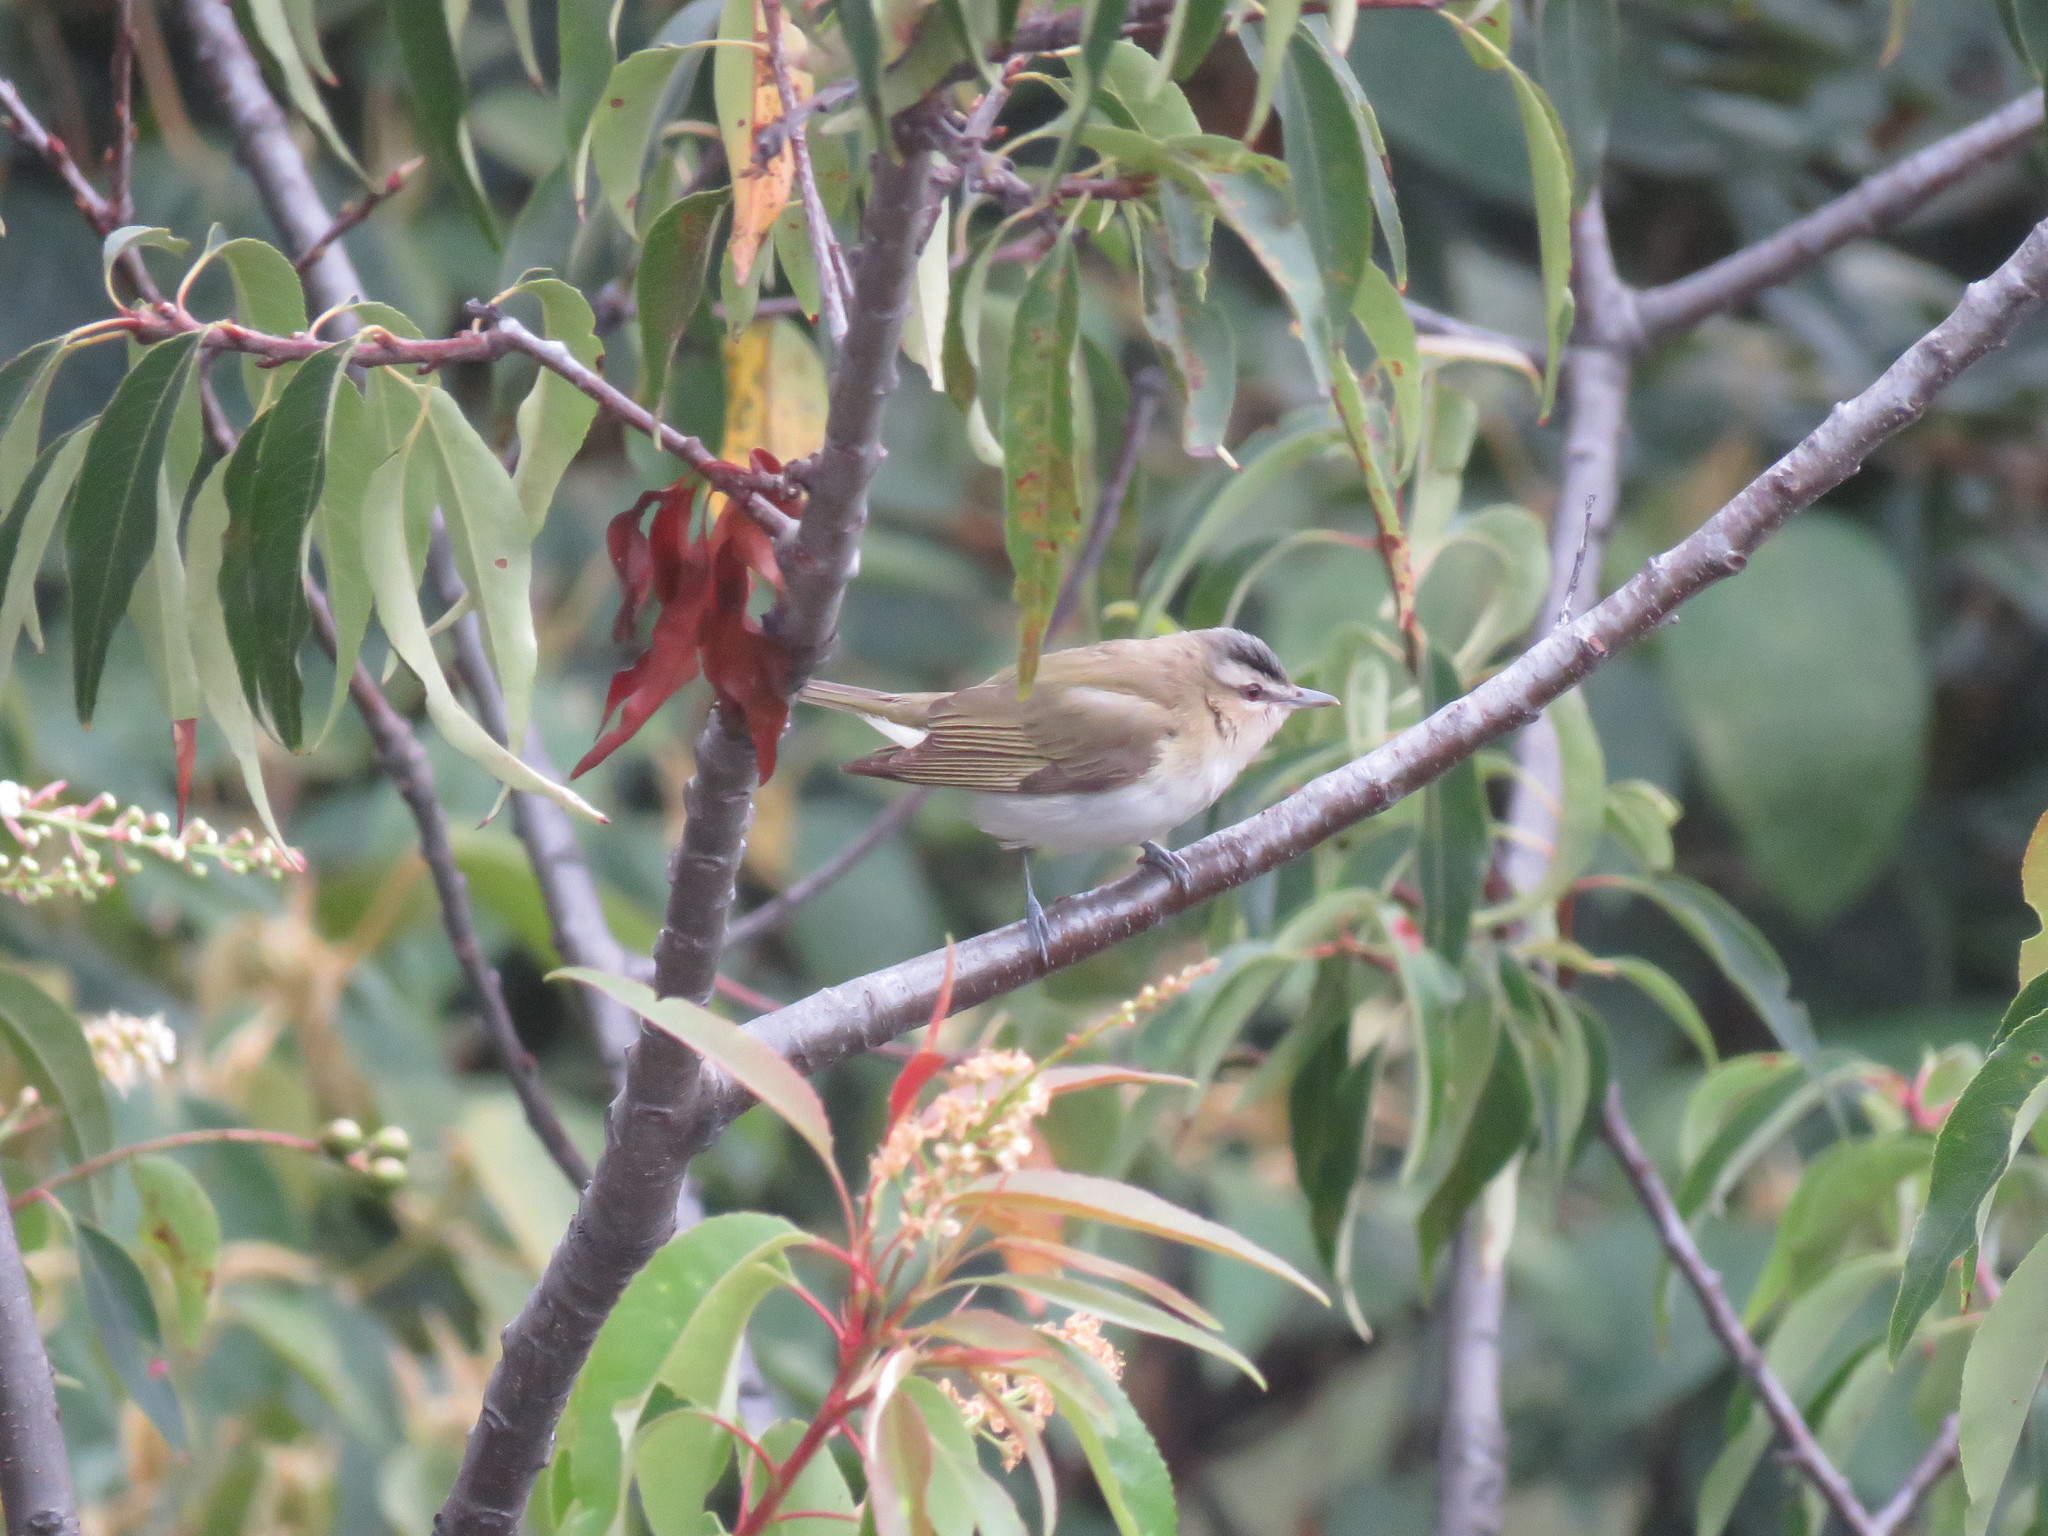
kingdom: Animalia
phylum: Chordata
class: Aves
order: Passeriformes
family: Vireonidae
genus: Vireo
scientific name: Vireo olivaceus
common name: Red-eyed vireo
